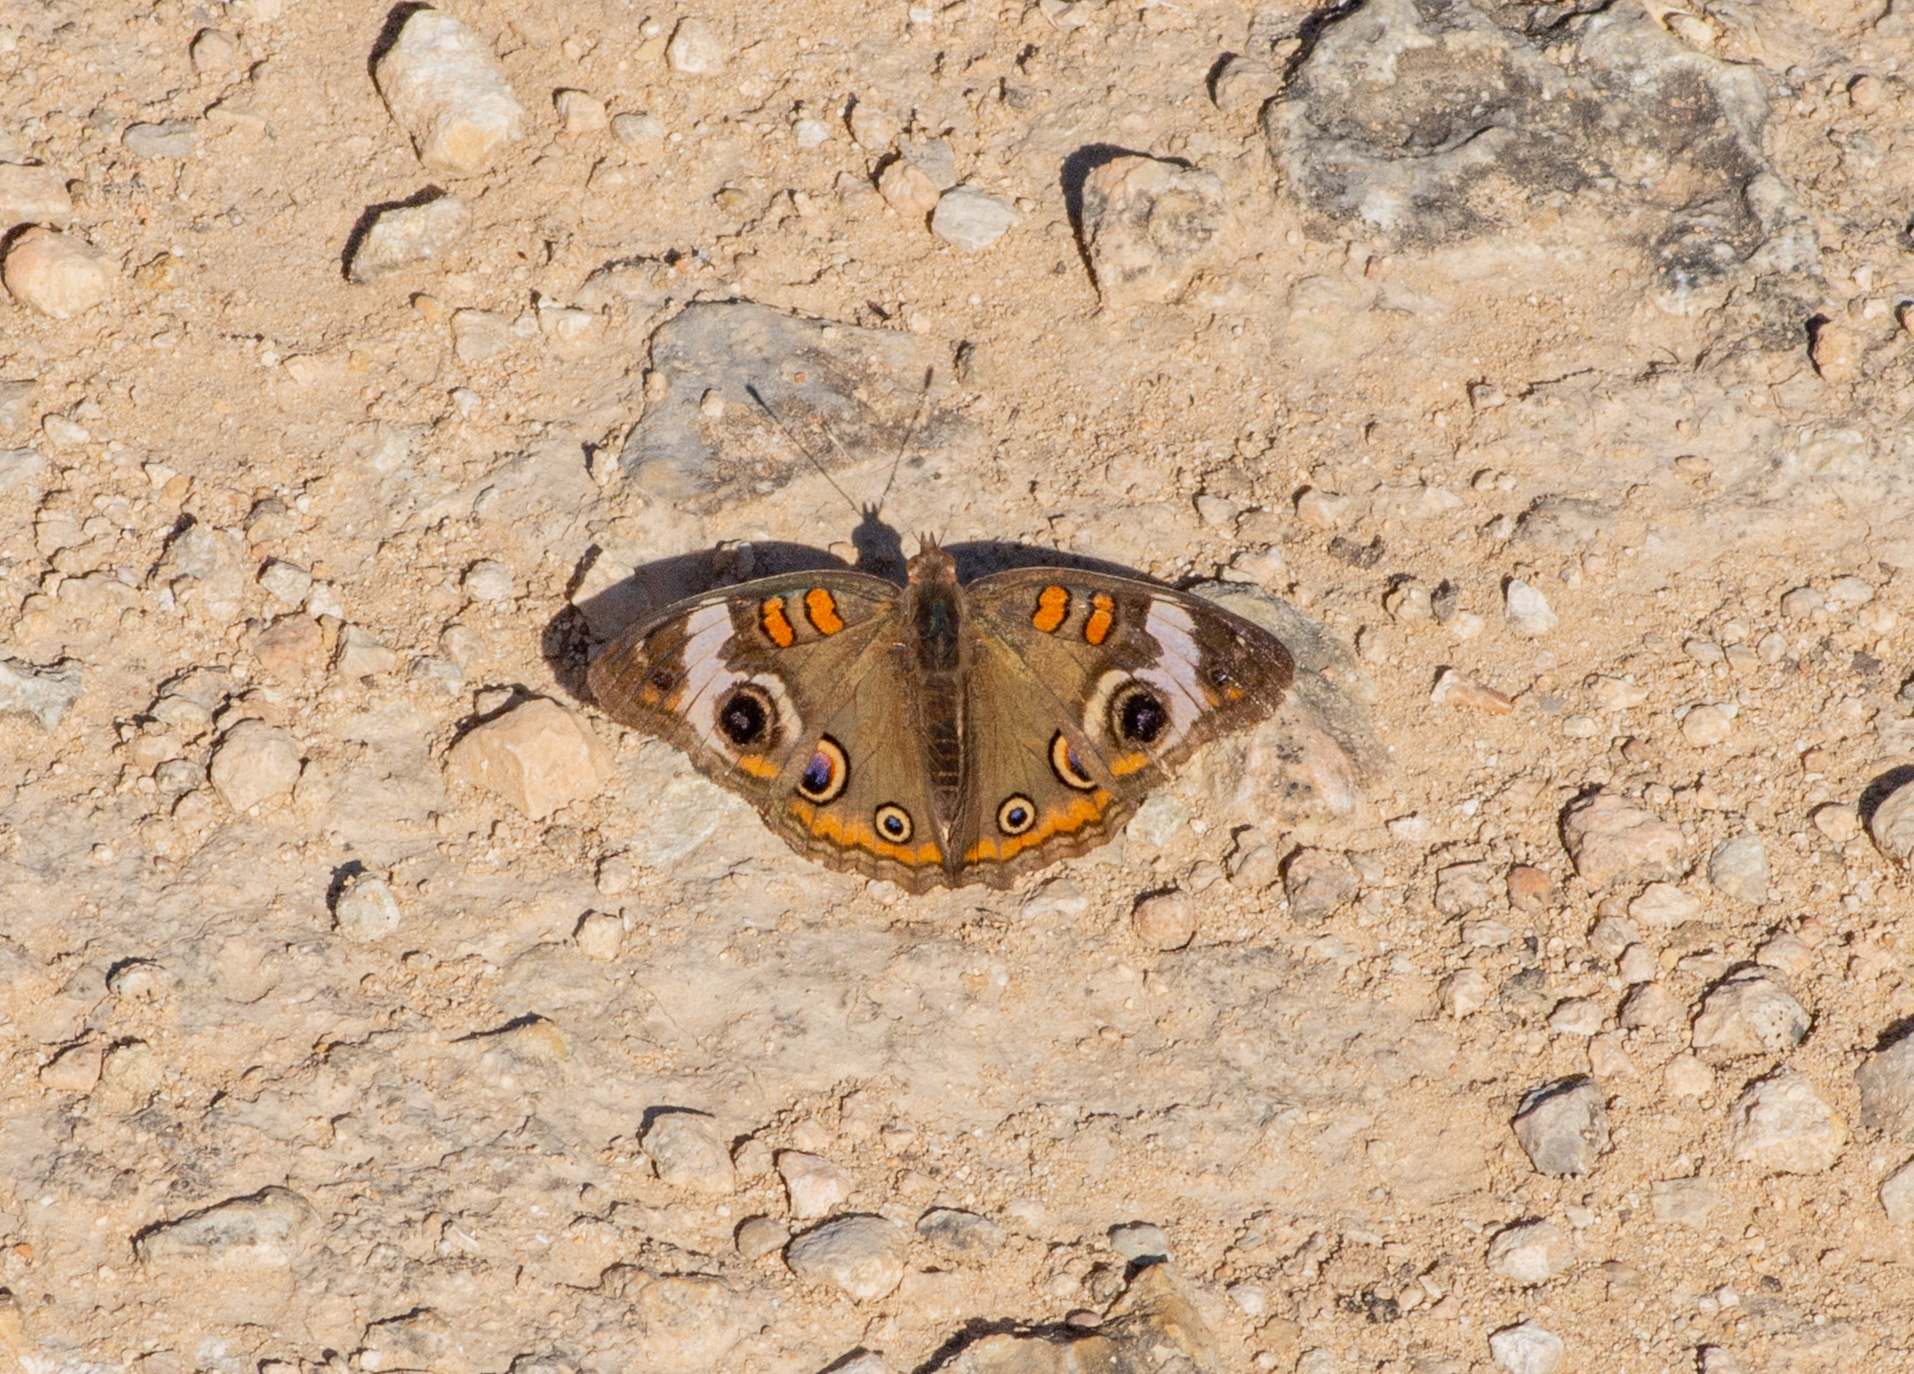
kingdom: Animalia
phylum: Arthropoda
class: Insecta
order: Lepidoptera
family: Nymphalidae
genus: Junonia
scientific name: Junonia coenia
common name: Common buckeye
